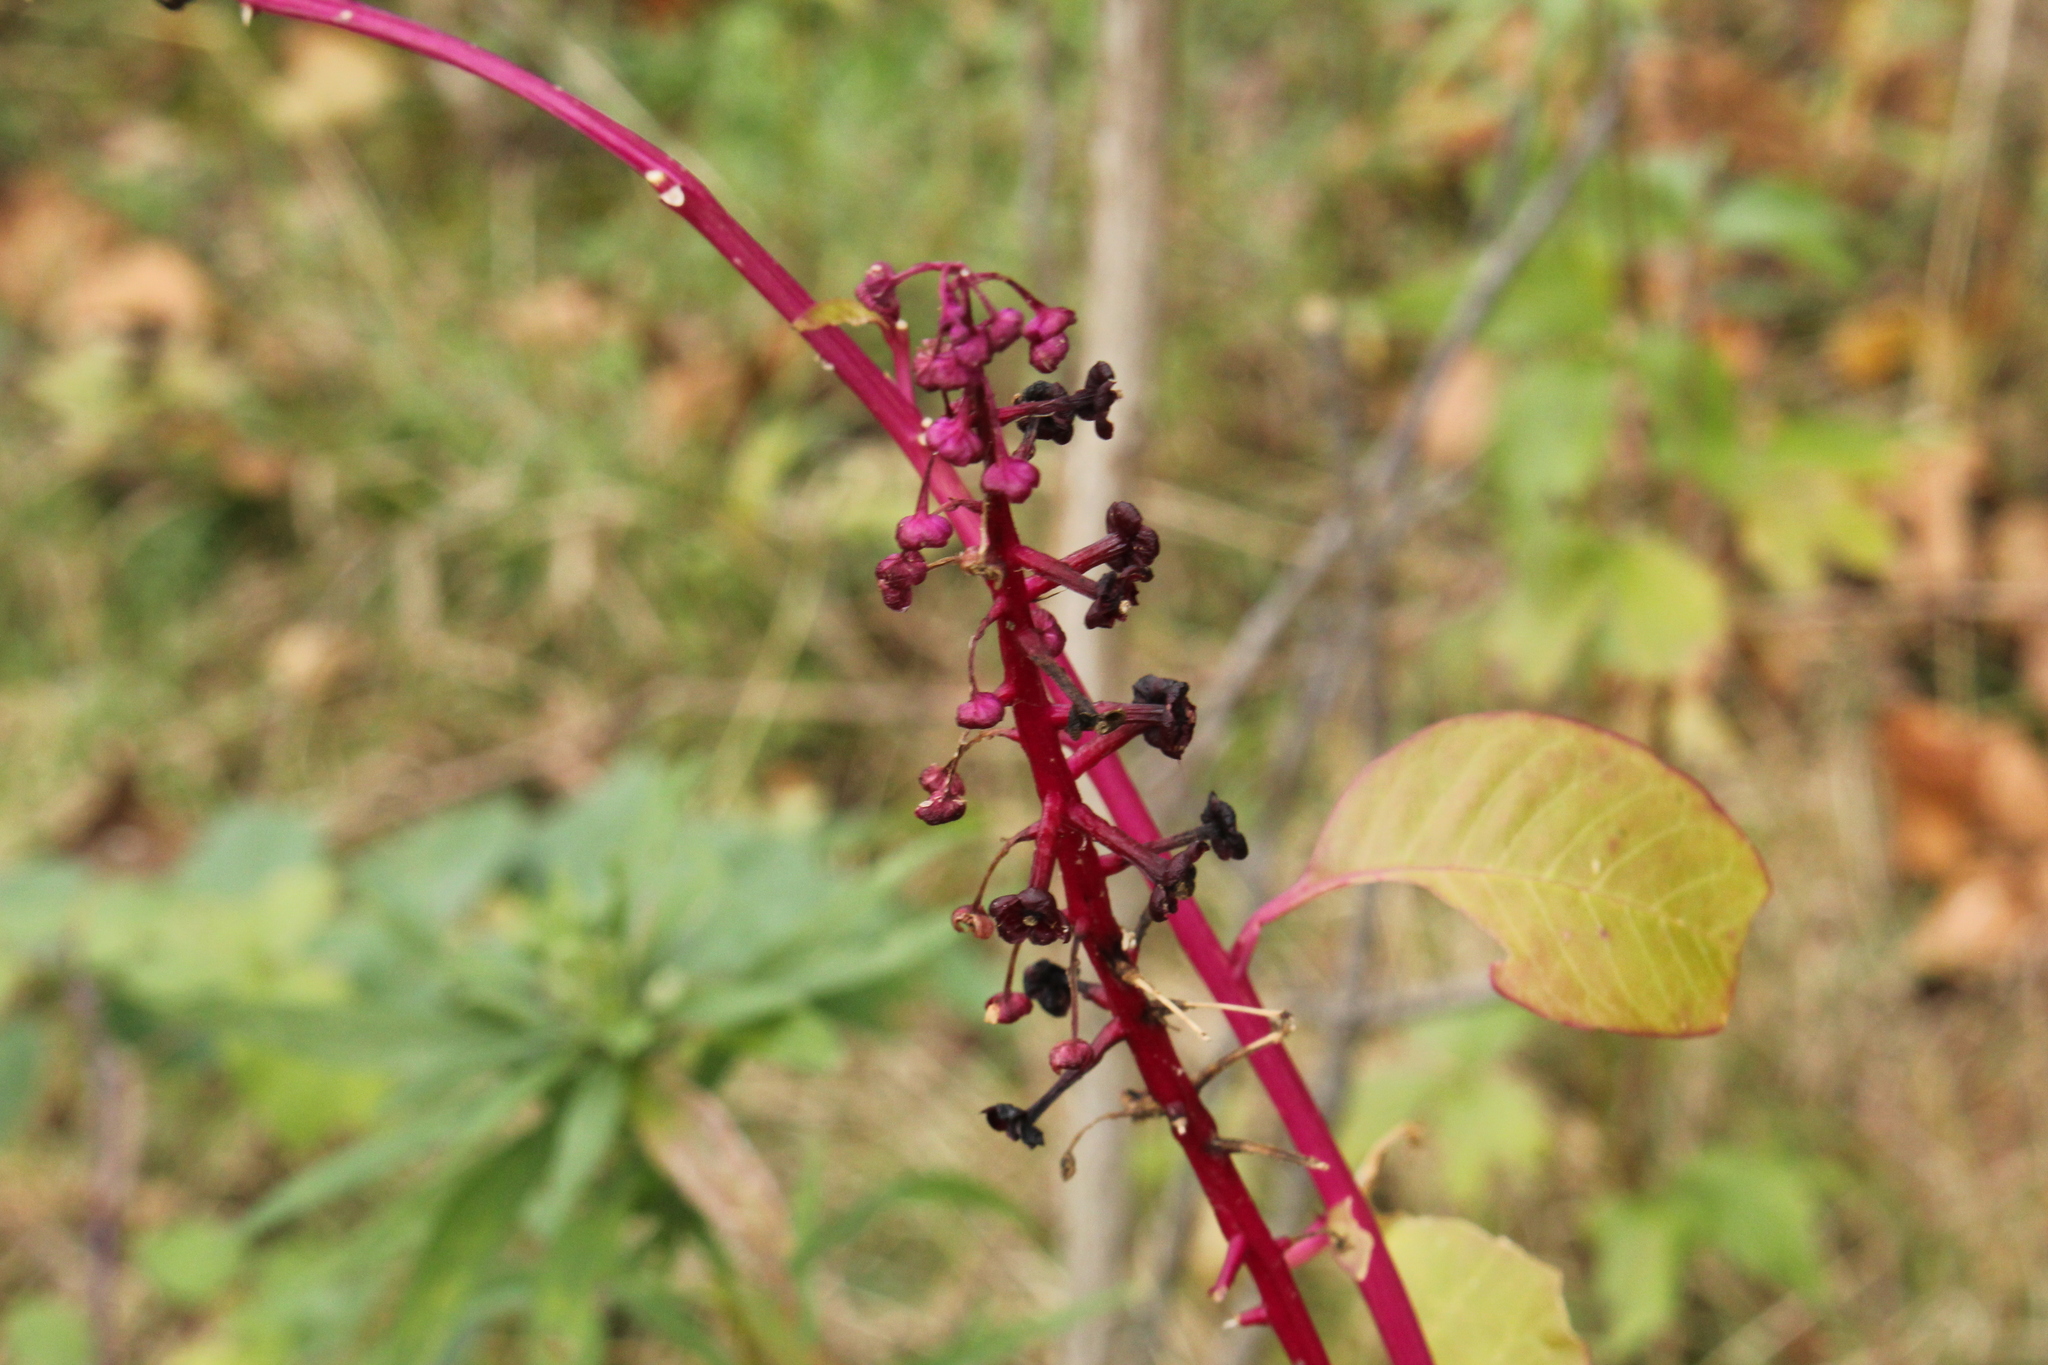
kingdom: Plantae
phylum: Tracheophyta
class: Magnoliopsida
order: Caryophyllales
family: Phytolaccaceae
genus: Phytolacca
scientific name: Phytolacca americana
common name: American pokeweed
